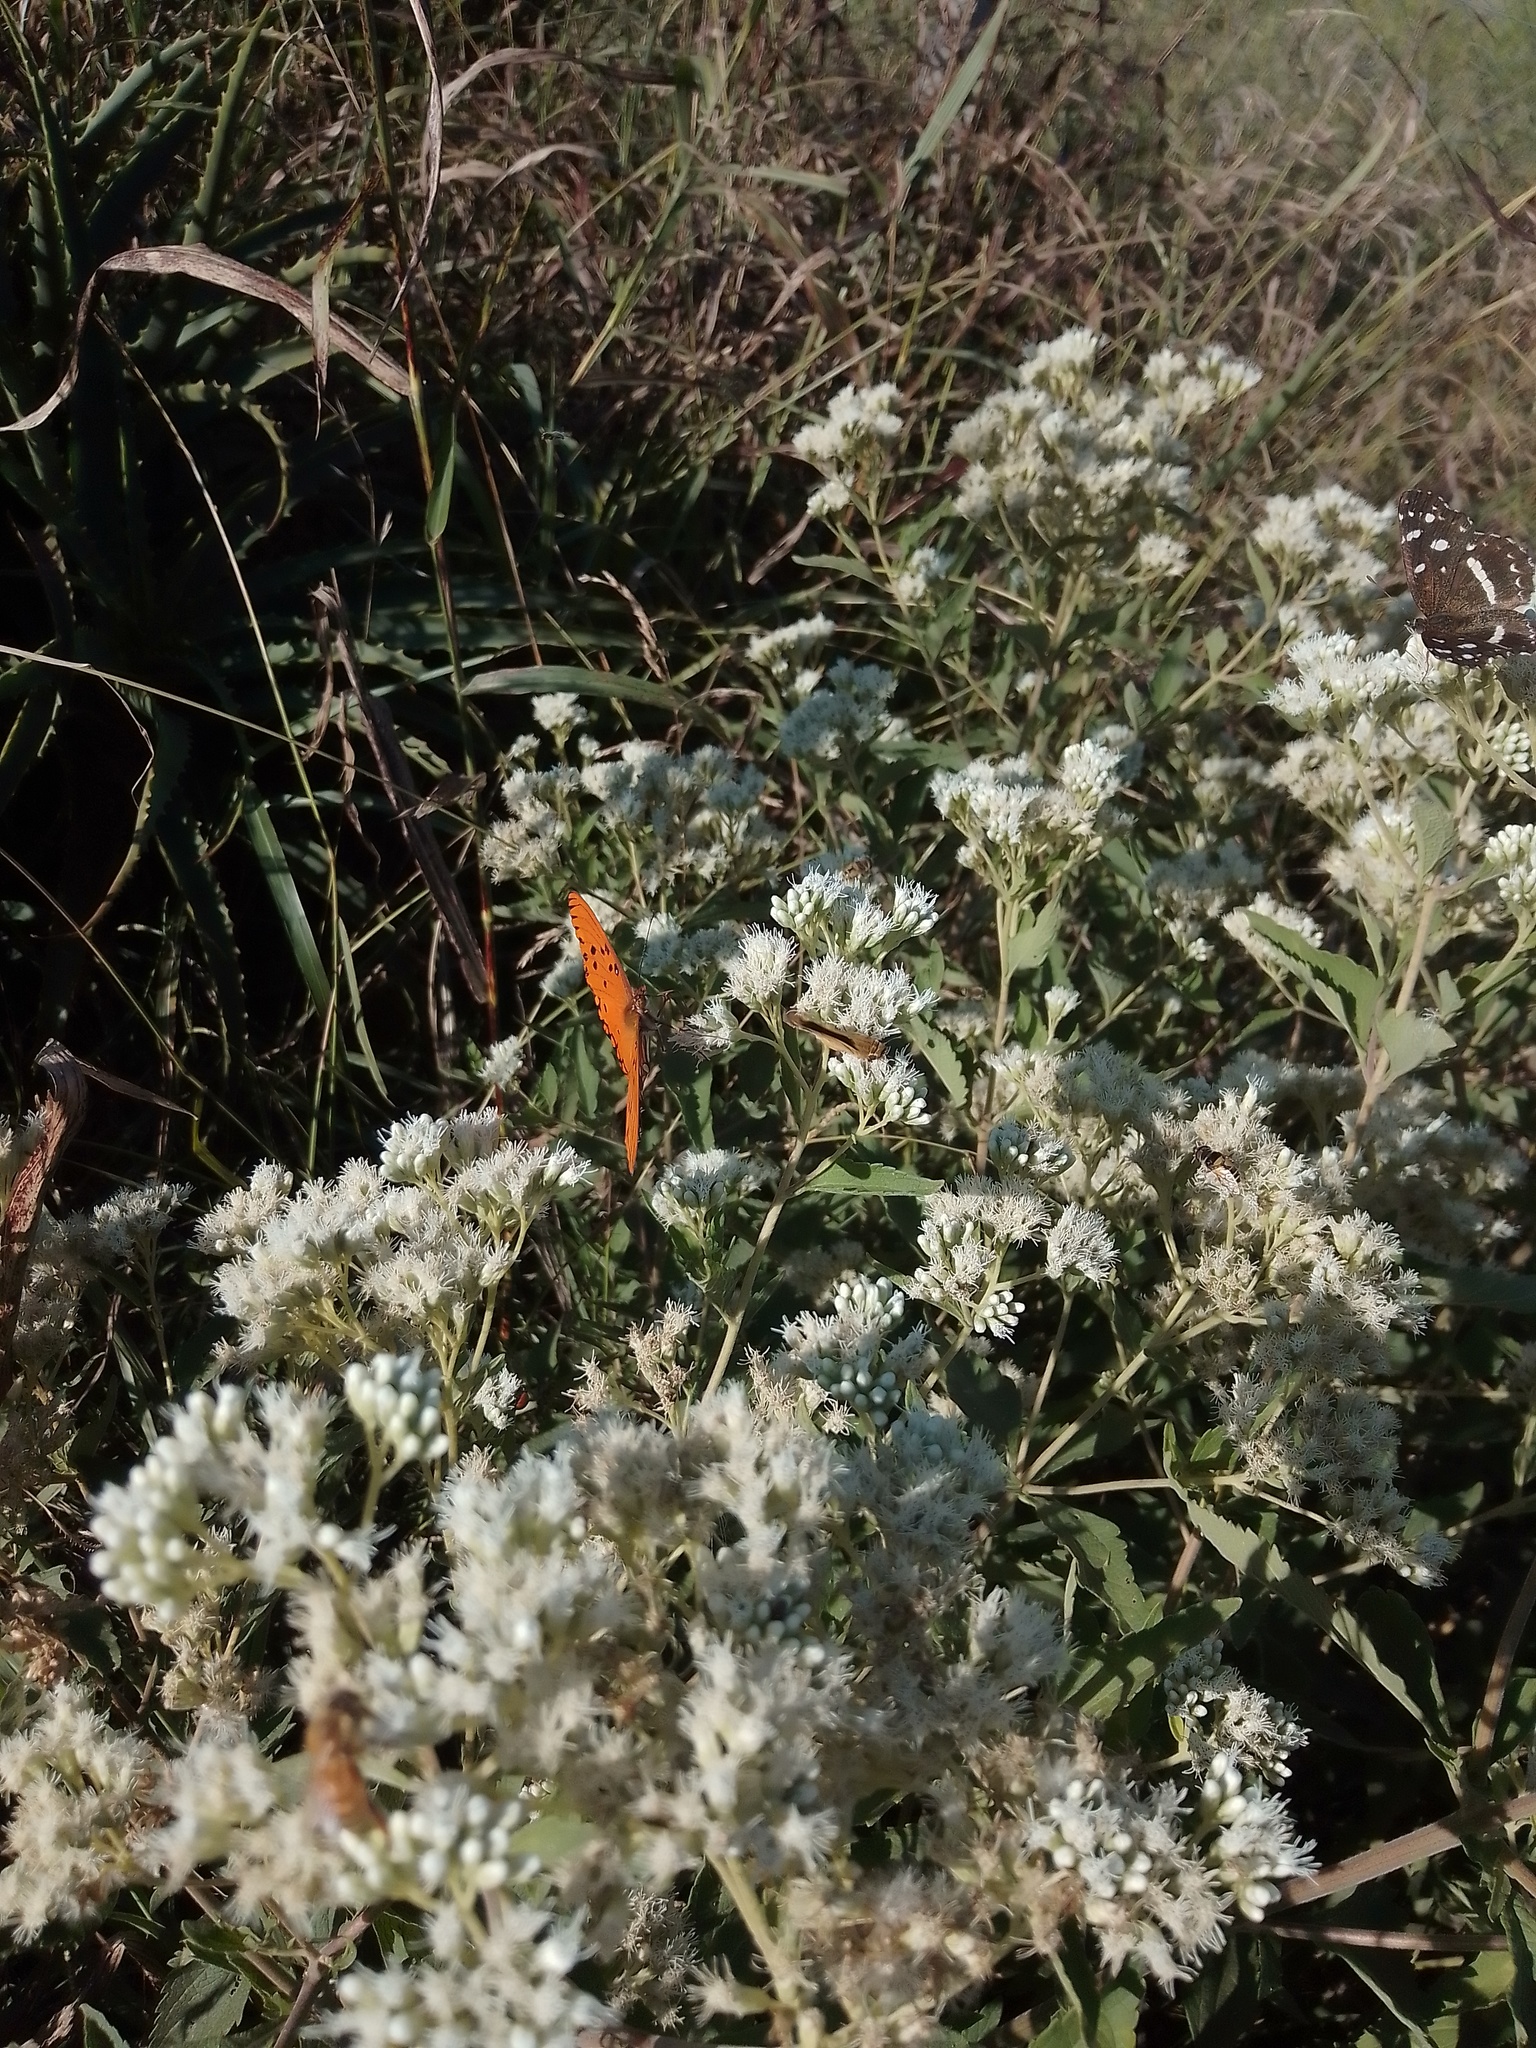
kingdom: Animalia
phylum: Arthropoda
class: Insecta
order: Lepidoptera
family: Nymphalidae
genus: Dione
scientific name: Dione vanillae
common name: Gulf fritillary
